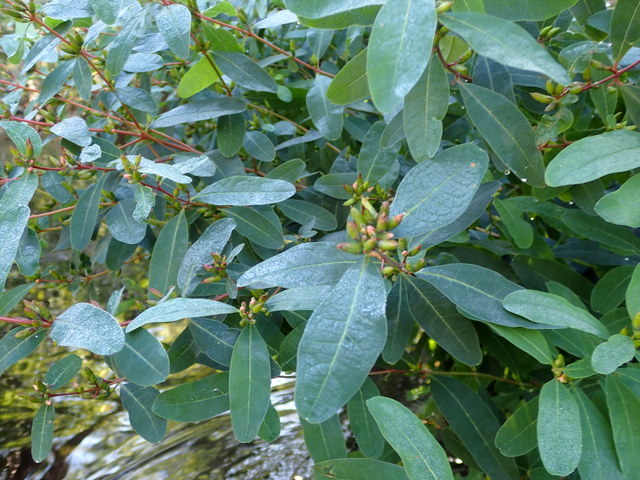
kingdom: Plantae
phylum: Tracheophyta
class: Magnoliopsida
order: Malpighiales
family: Hypericaceae
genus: Triadenum
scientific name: Triadenum walteri
